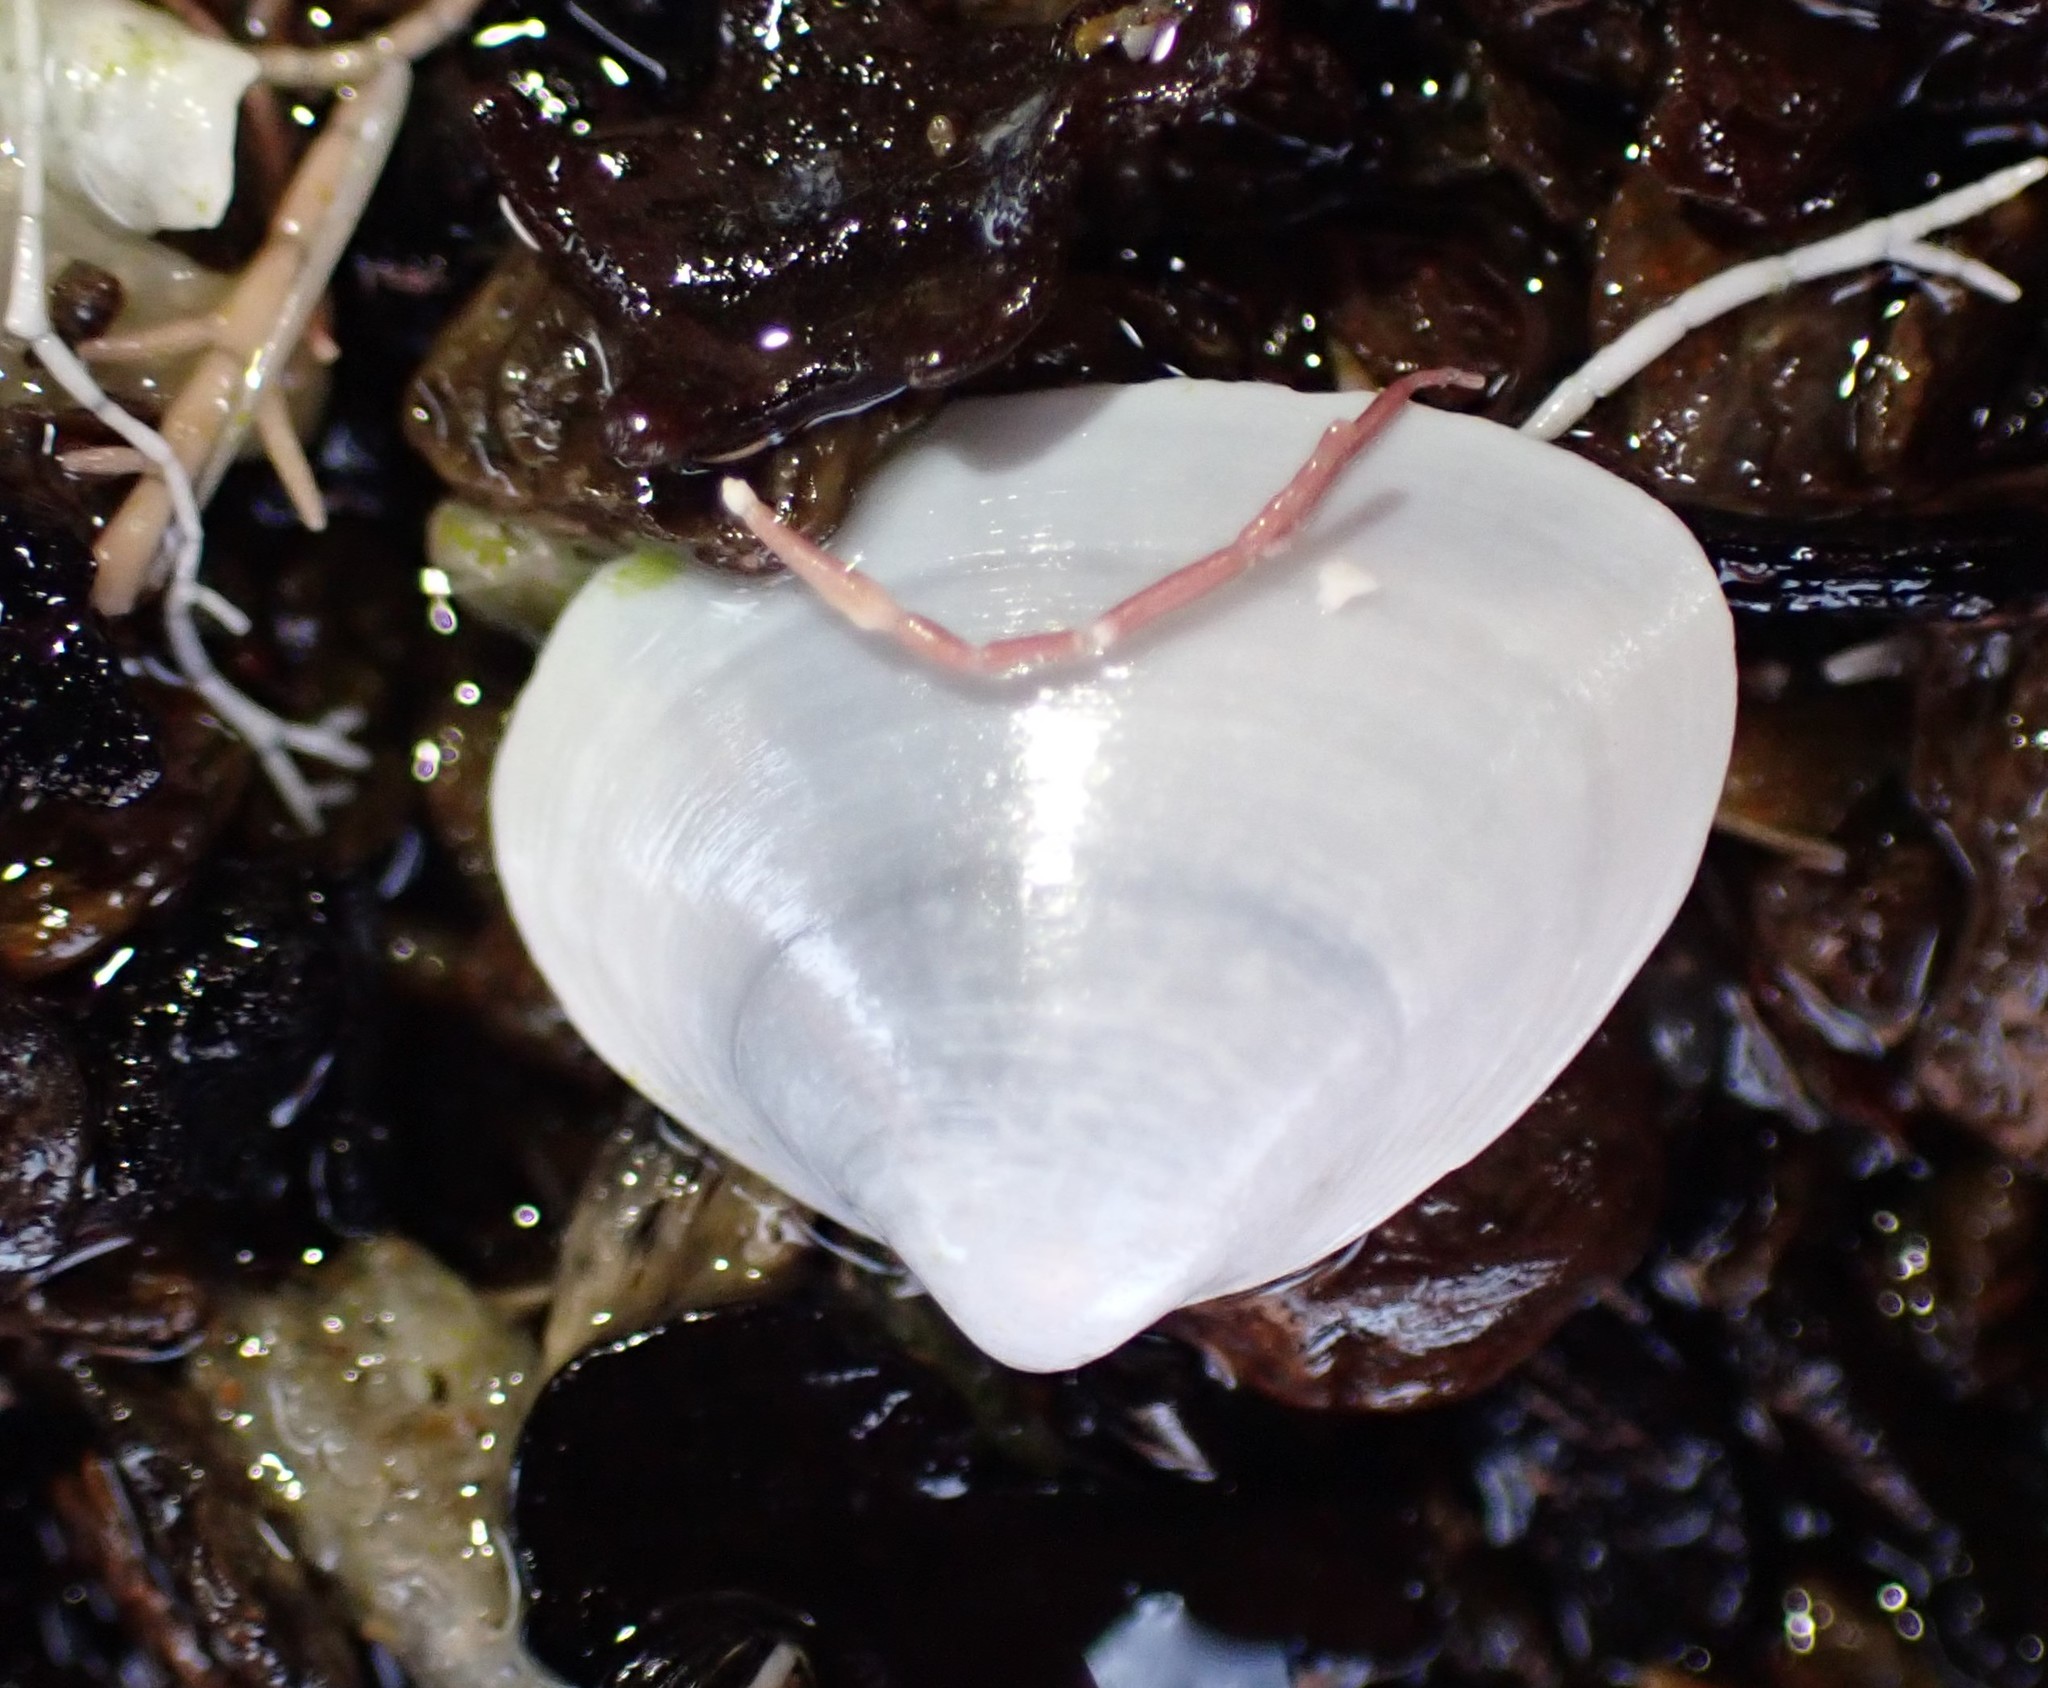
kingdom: Animalia
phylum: Mollusca
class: Bivalvia
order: Venerida
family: Mactridae
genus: Maorimactra
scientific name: Maorimactra ordinaria
